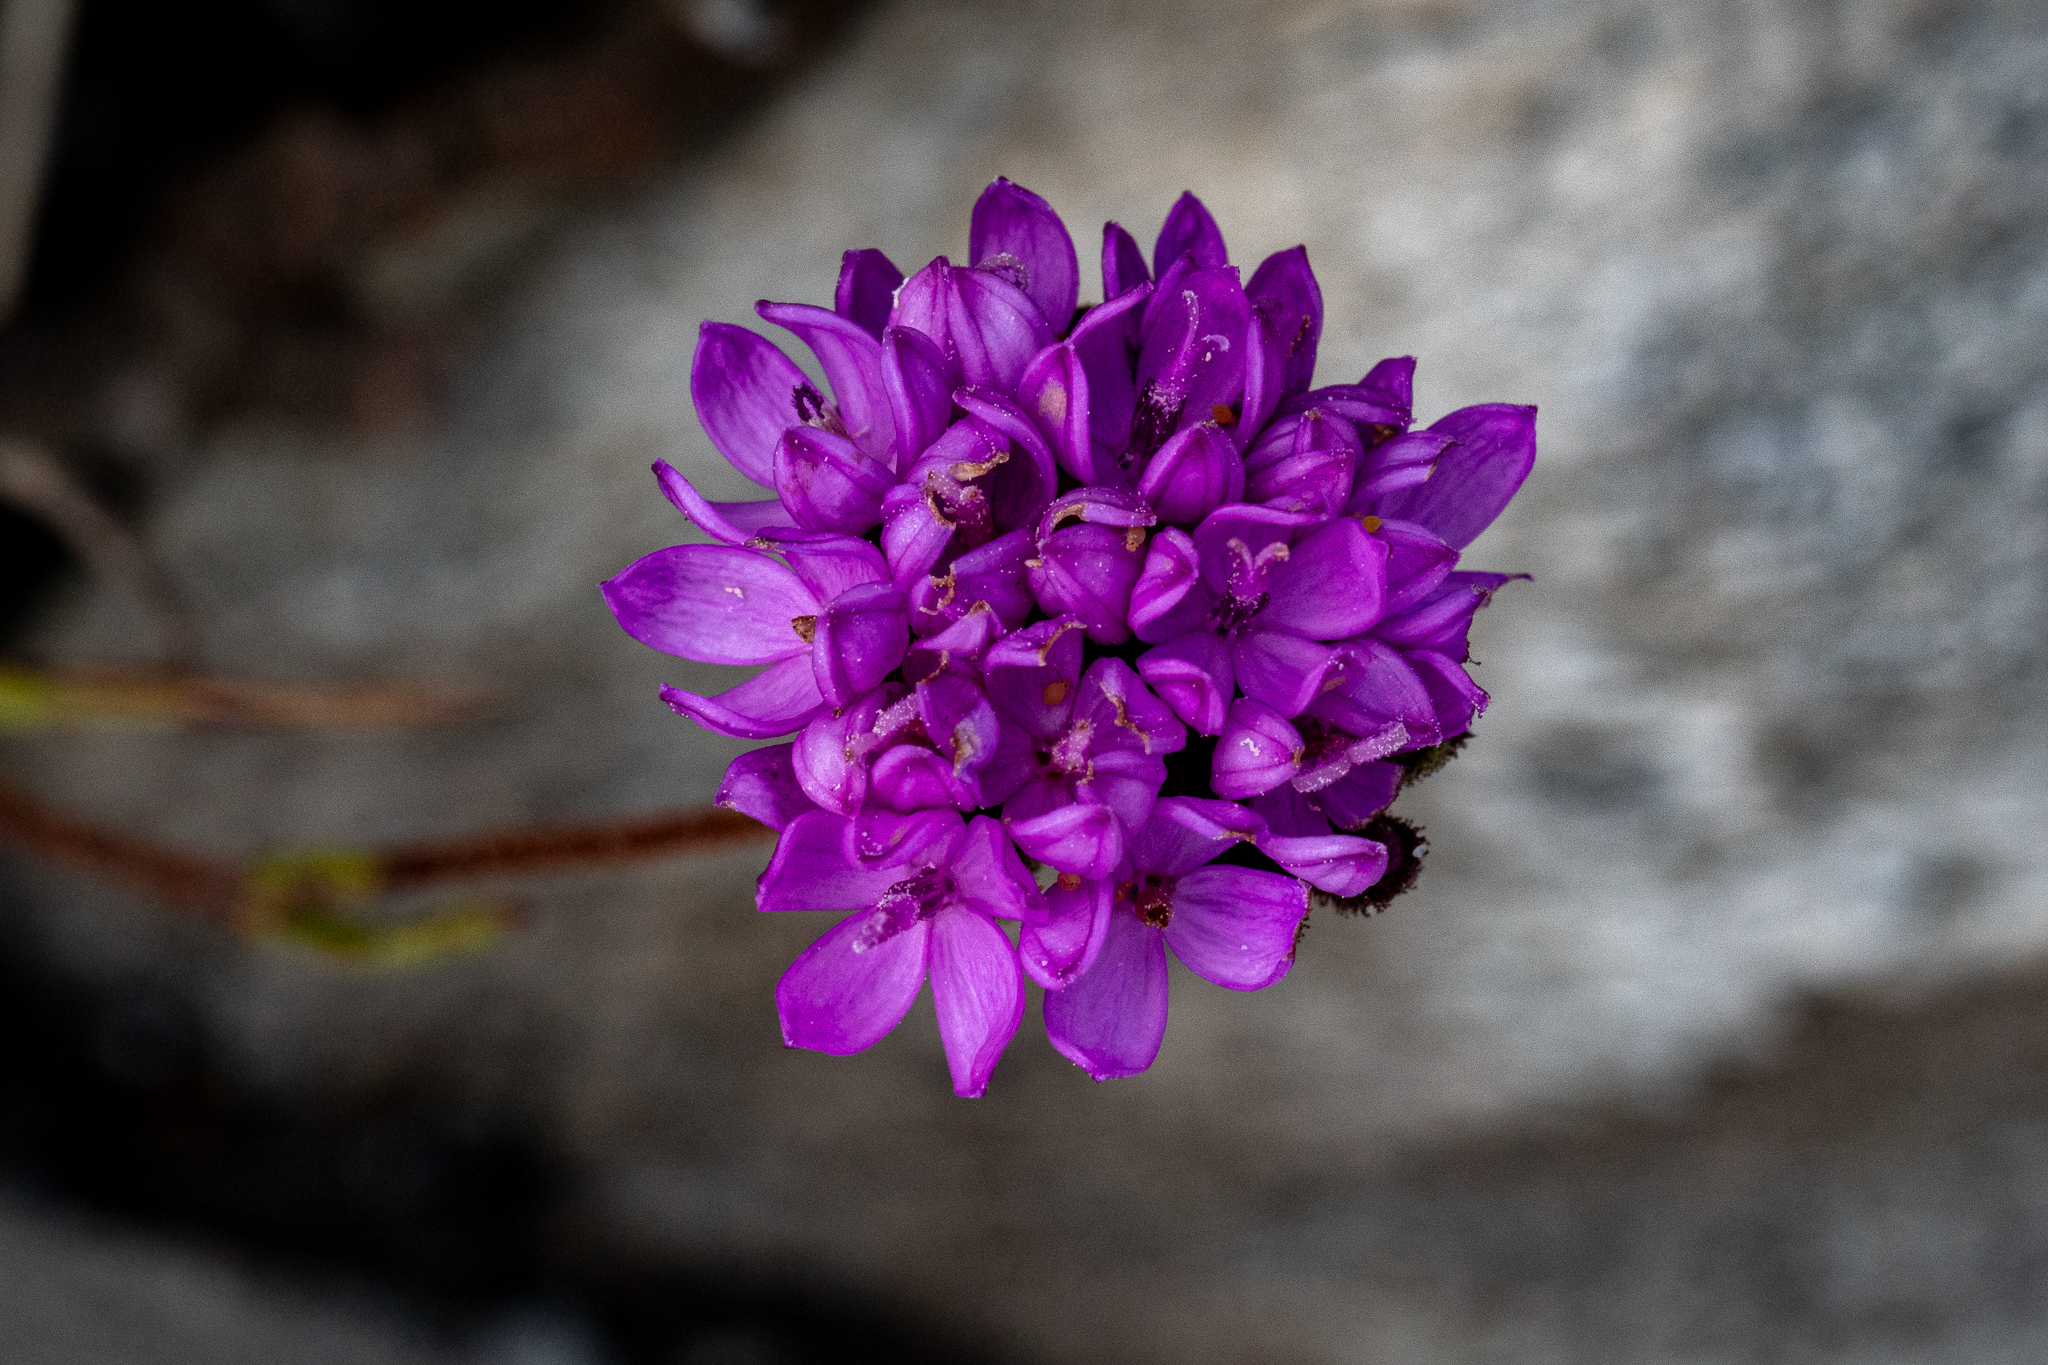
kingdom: Plantae
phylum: Tracheophyta
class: Magnoliopsida
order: Asterales
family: Asteraceae
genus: Corymbium
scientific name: Corymbium africanum
